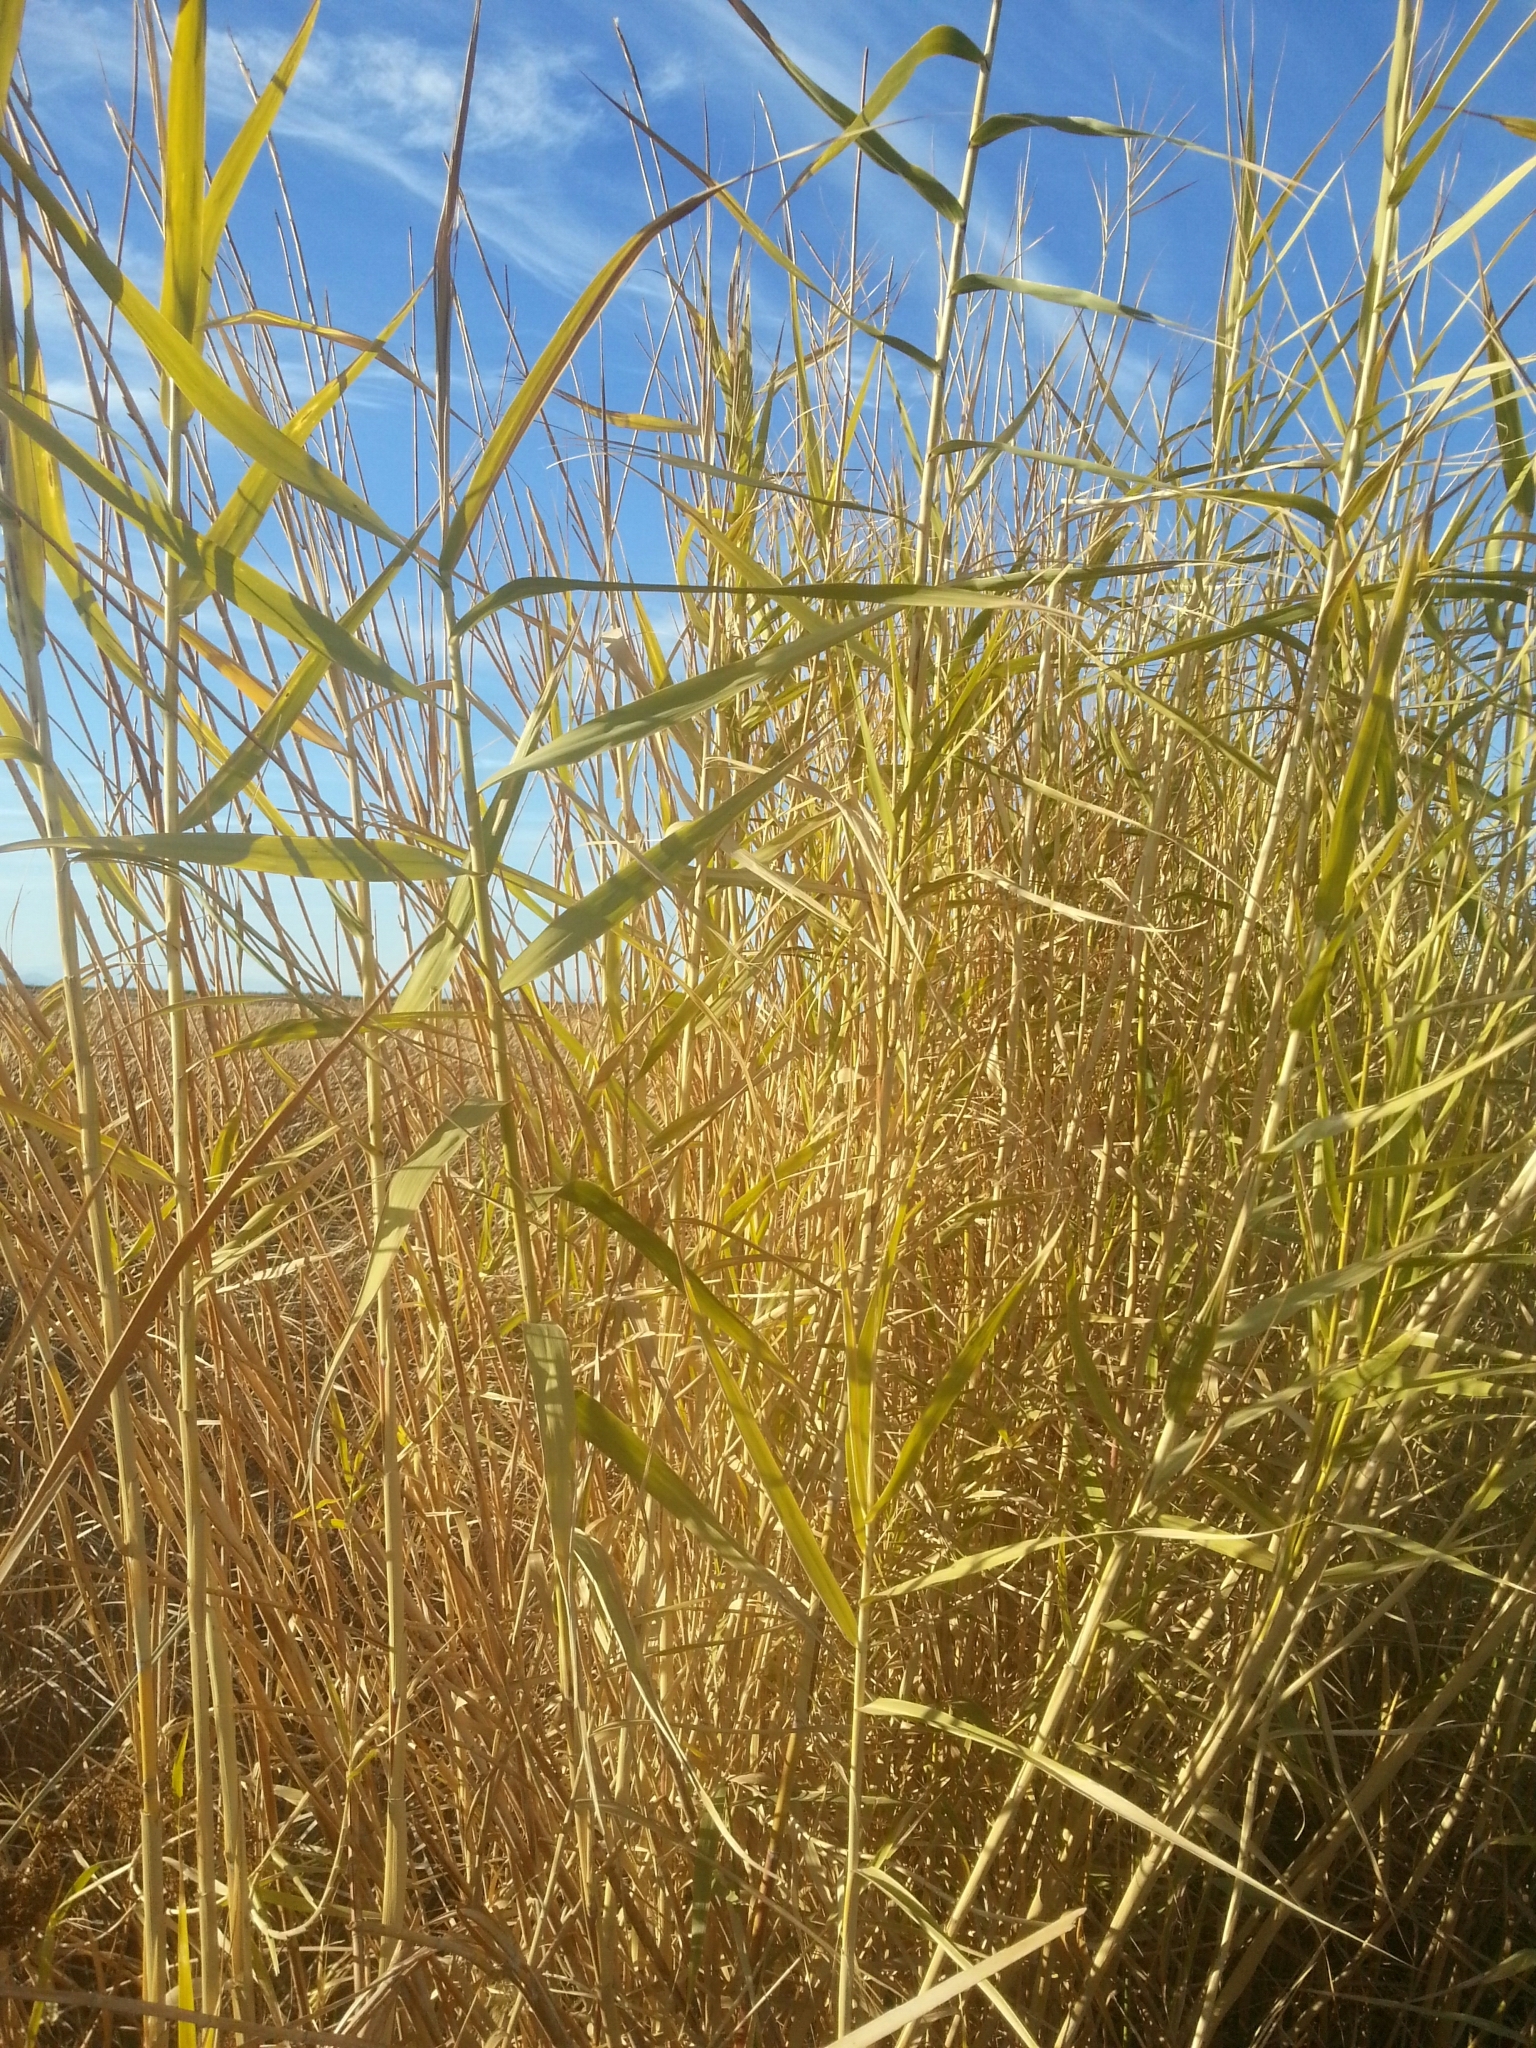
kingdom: Plantae
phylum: Tracheophyta
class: Liliopsida
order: Poales
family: Poaceae
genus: Phragmites
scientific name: Phragmites australis
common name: Common reed
